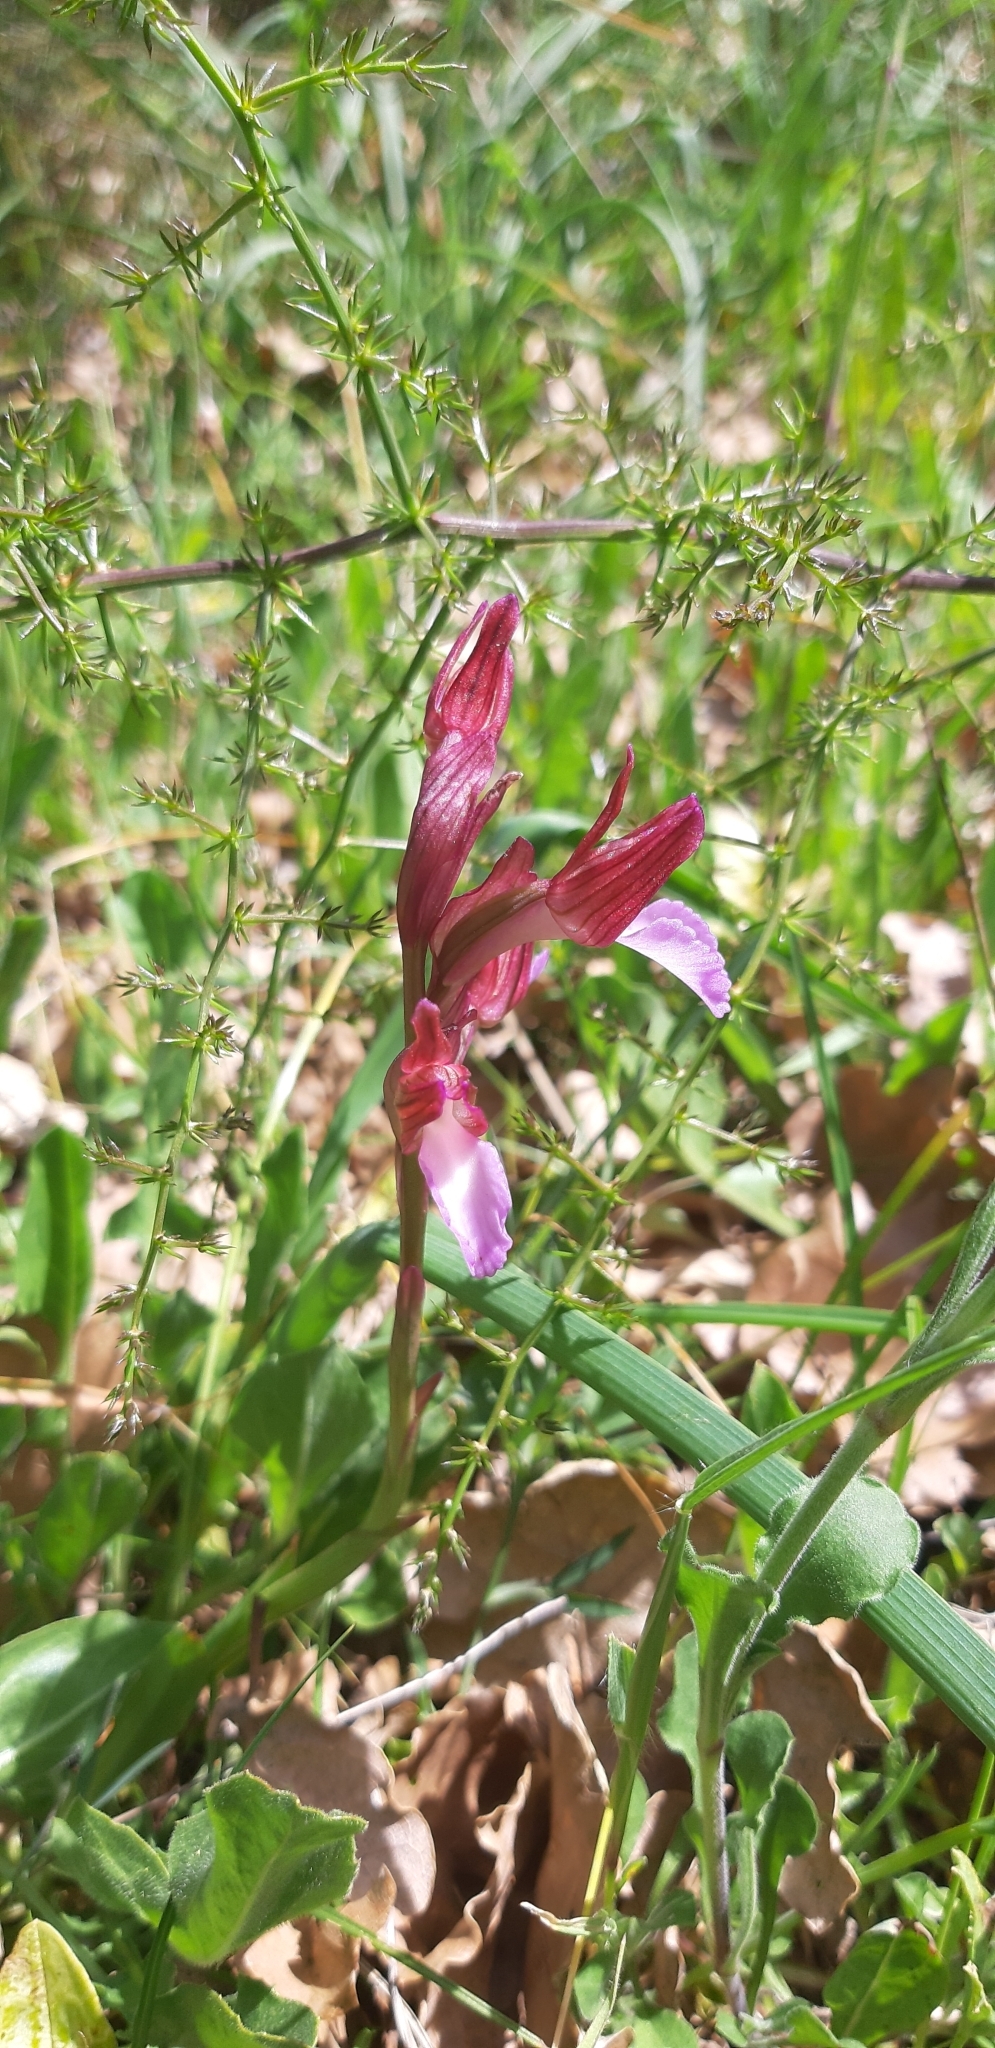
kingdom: Plantae
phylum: Tracheophyta
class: Liliopsida
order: Asparagales
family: Orchidaceae
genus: Anacamptis
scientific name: Anacamptis papilionacea
